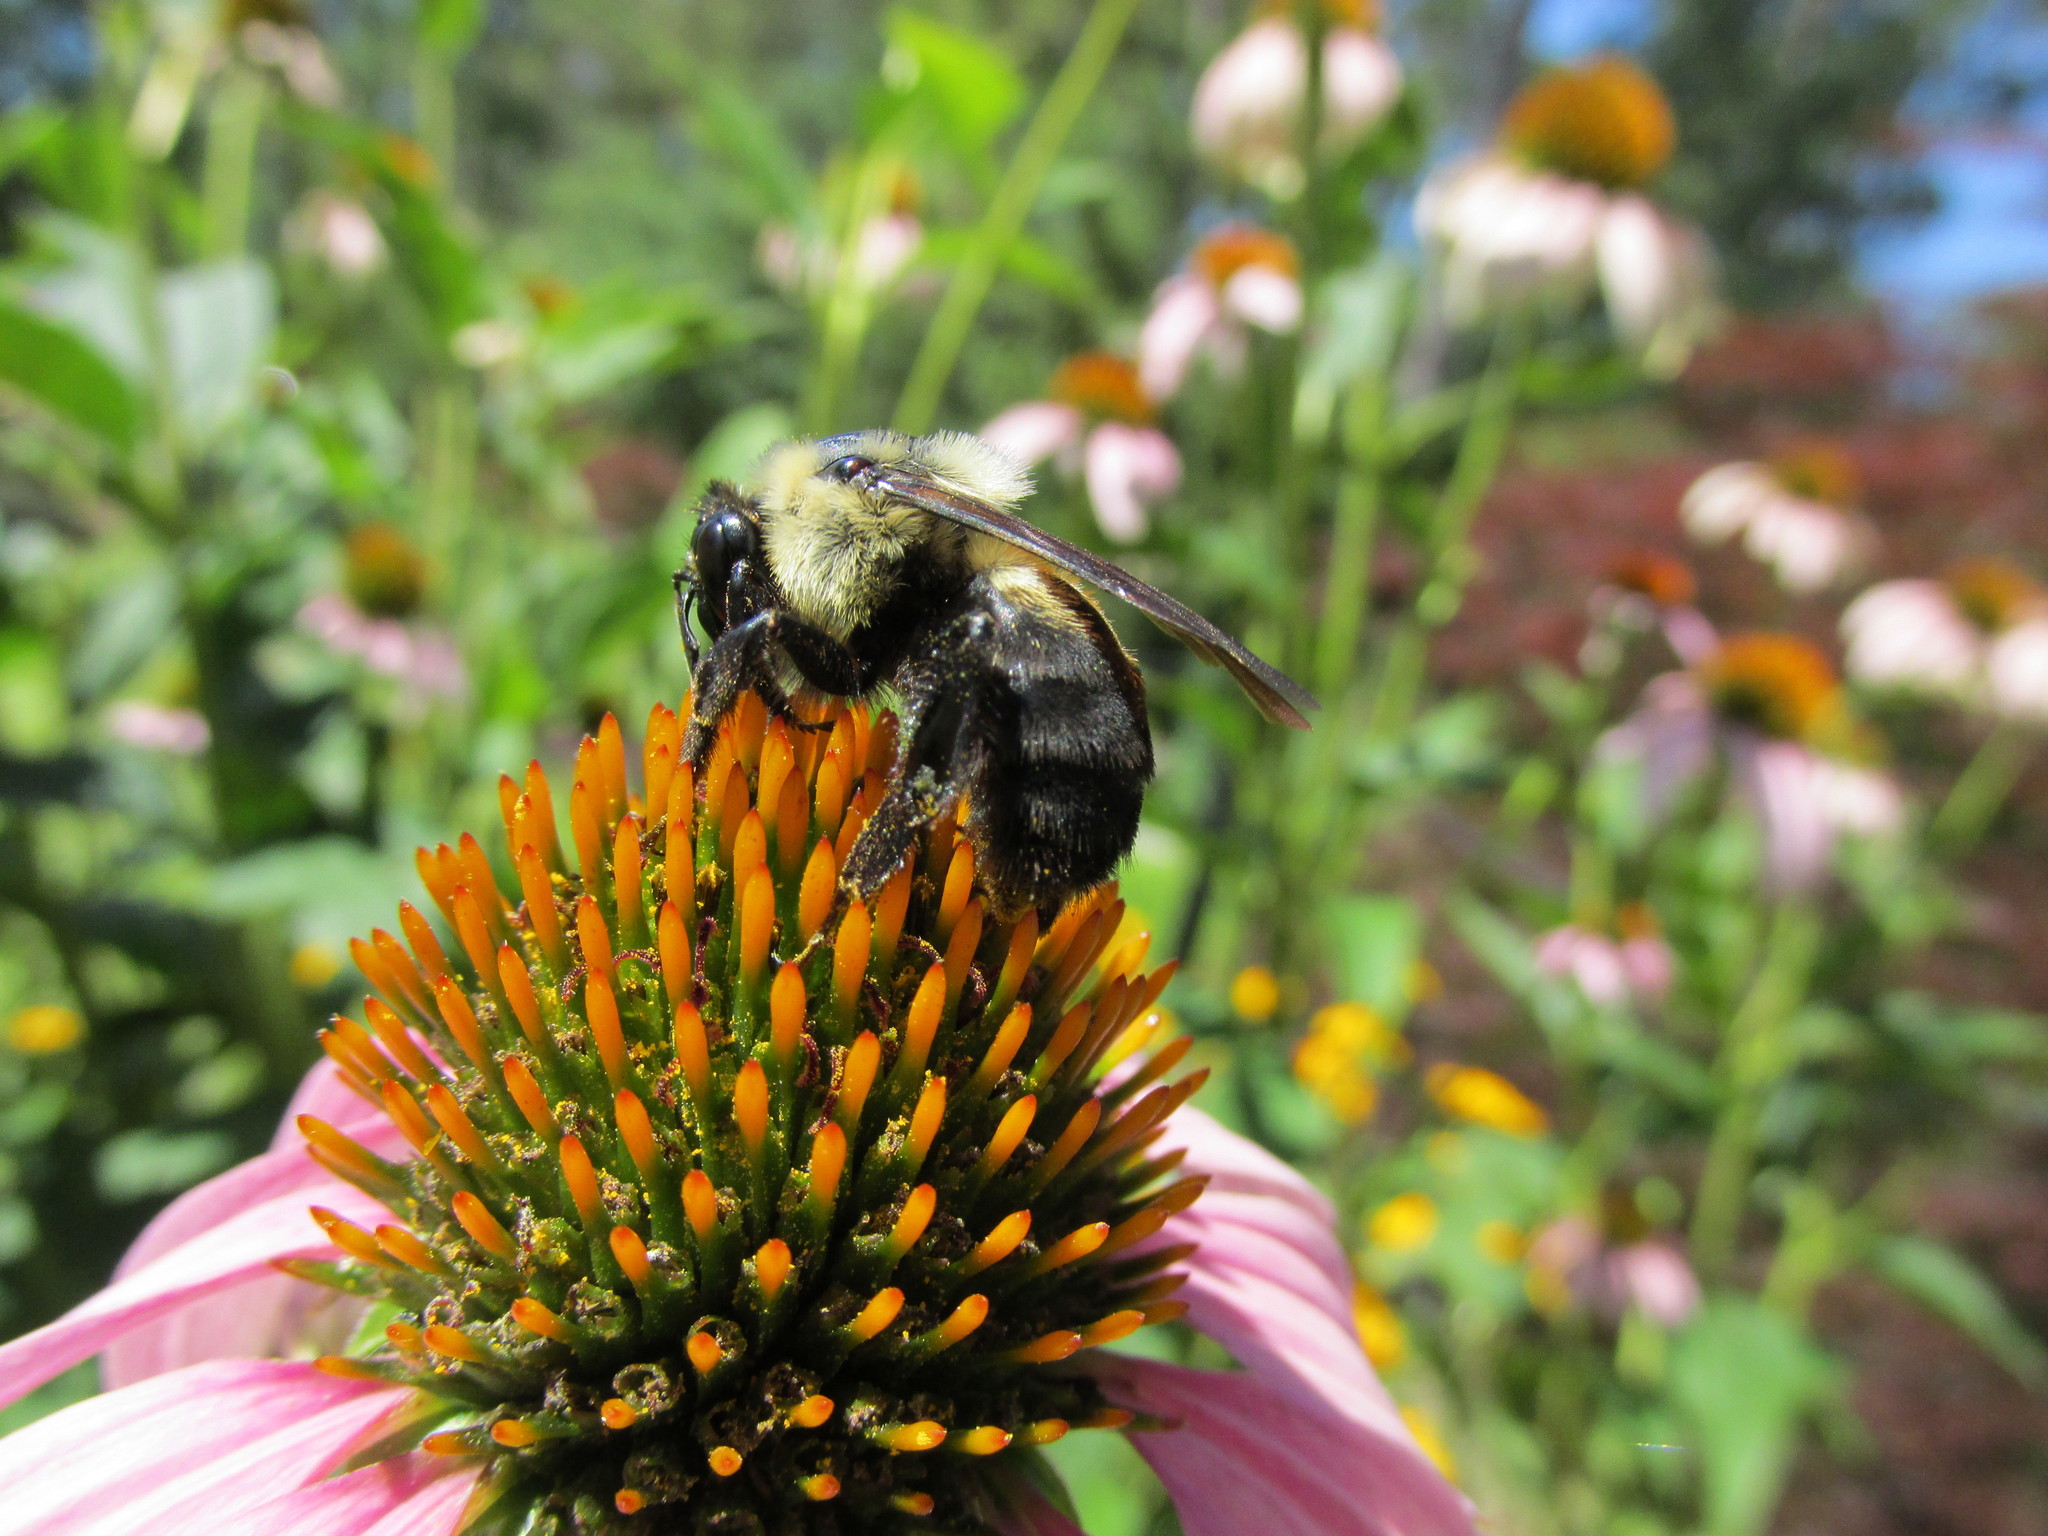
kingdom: Animalia
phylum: Arthropoda
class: Insecta
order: Hymenoptera
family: Apidae
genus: Bombus
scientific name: Bombus griseocollis
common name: Brown-belted bumble bee
